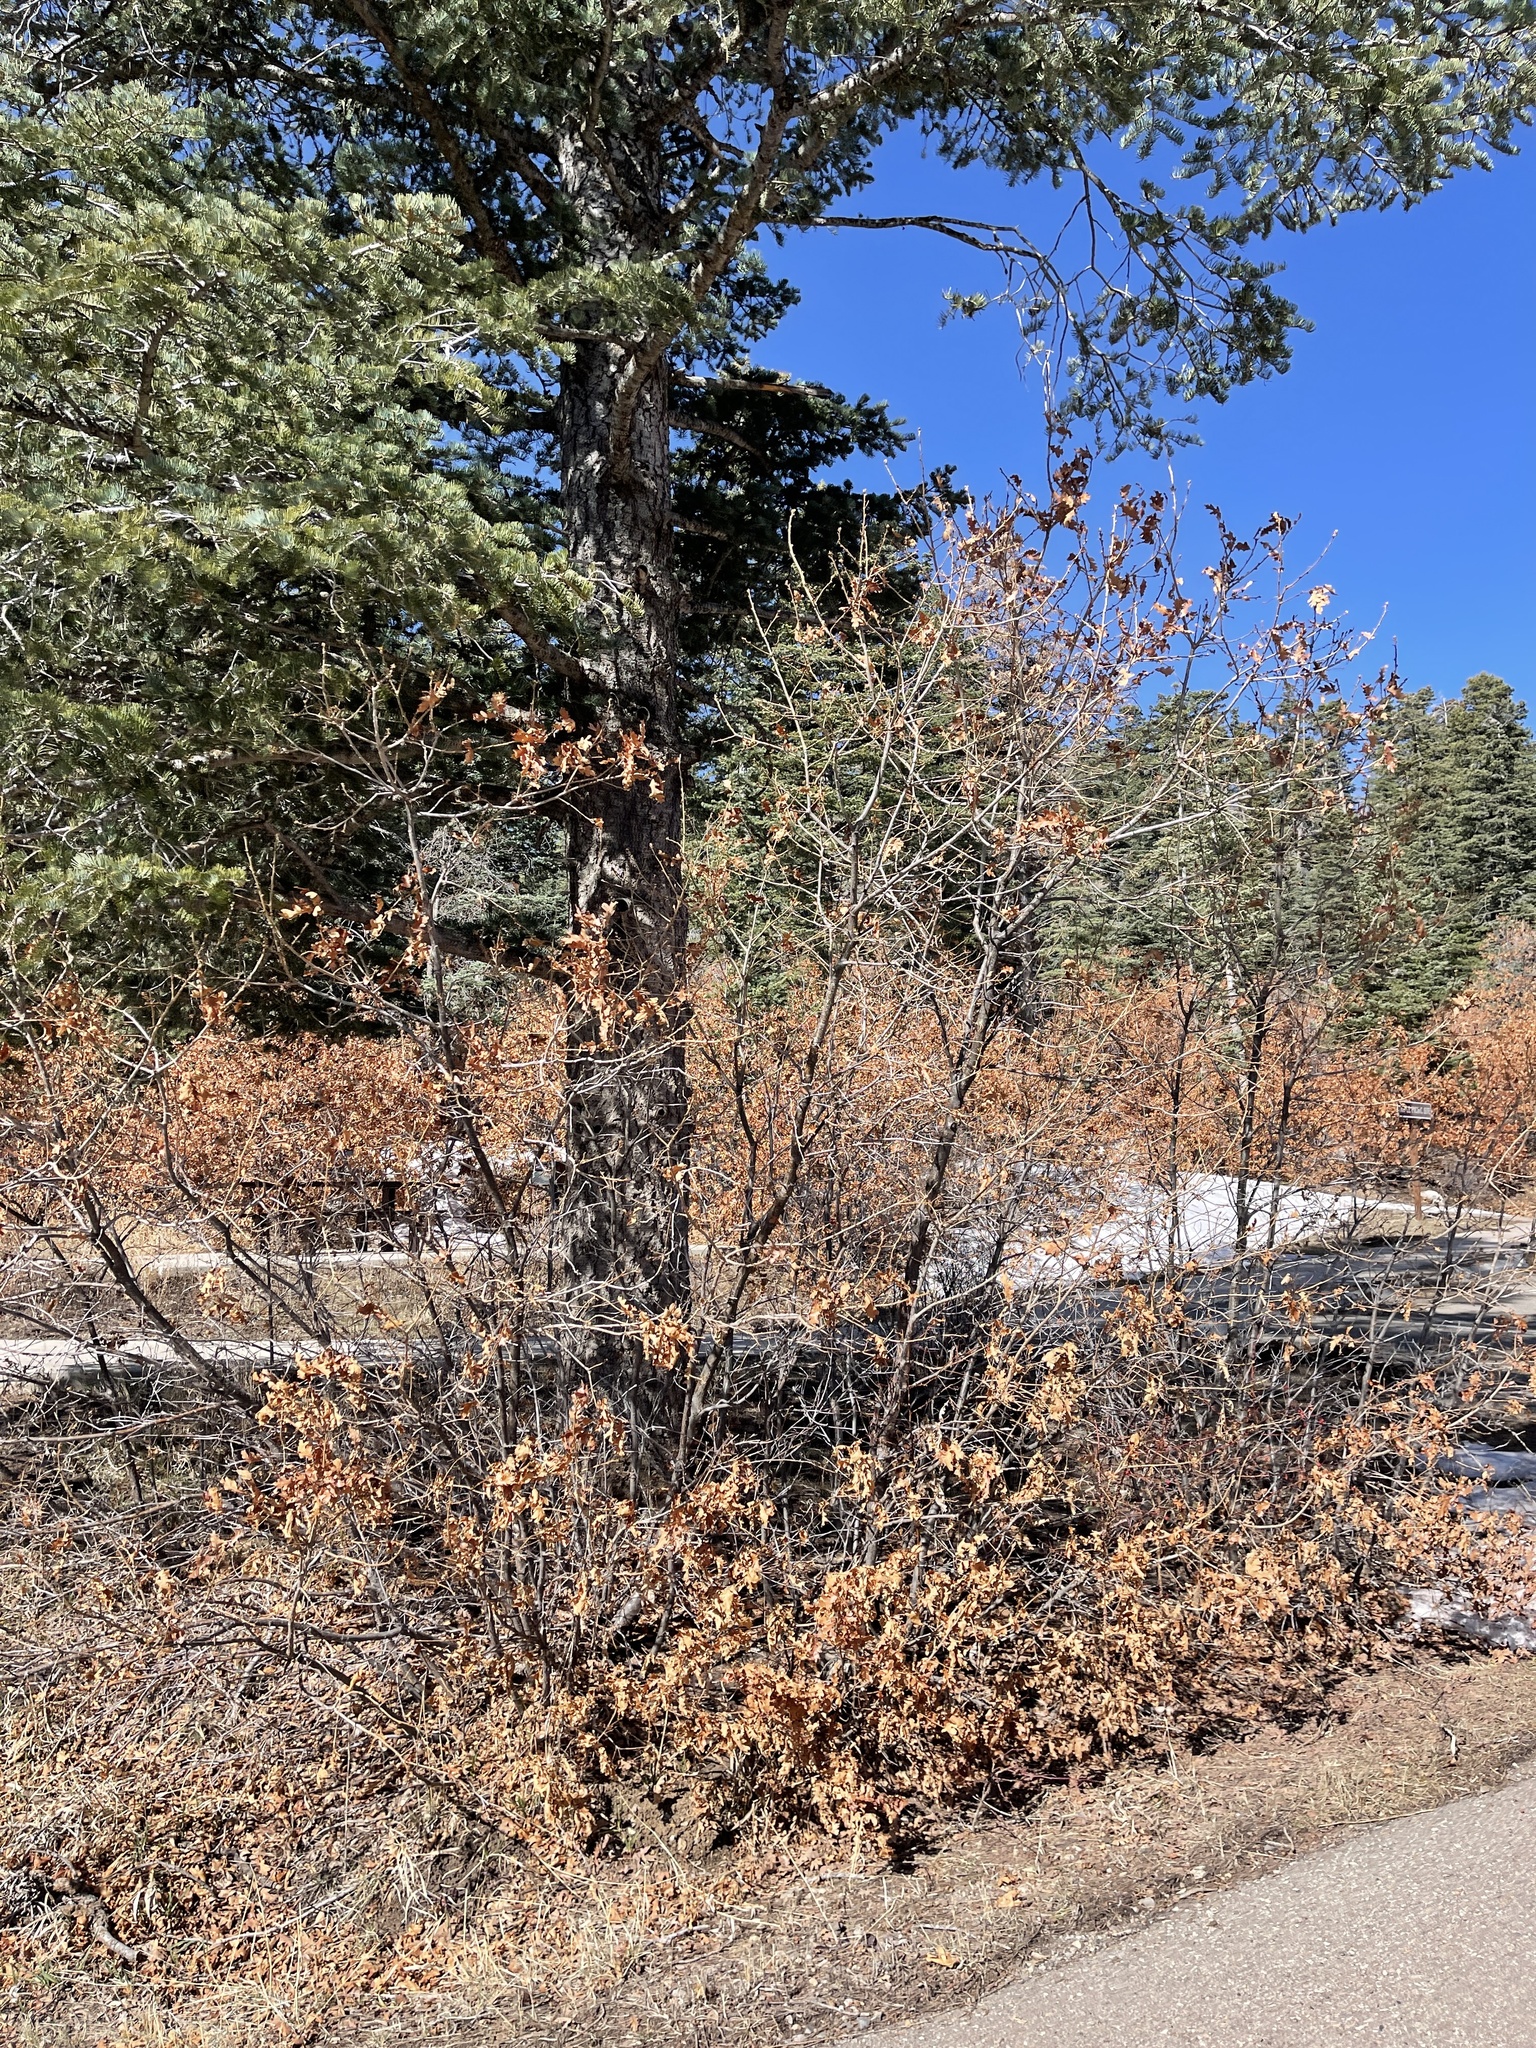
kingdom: Plantae
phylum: Tracheophyta
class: Magnoliopsida
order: Fagales
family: Fagaceae
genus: Quercus
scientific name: Quercus gambelii
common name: Gambel oak
